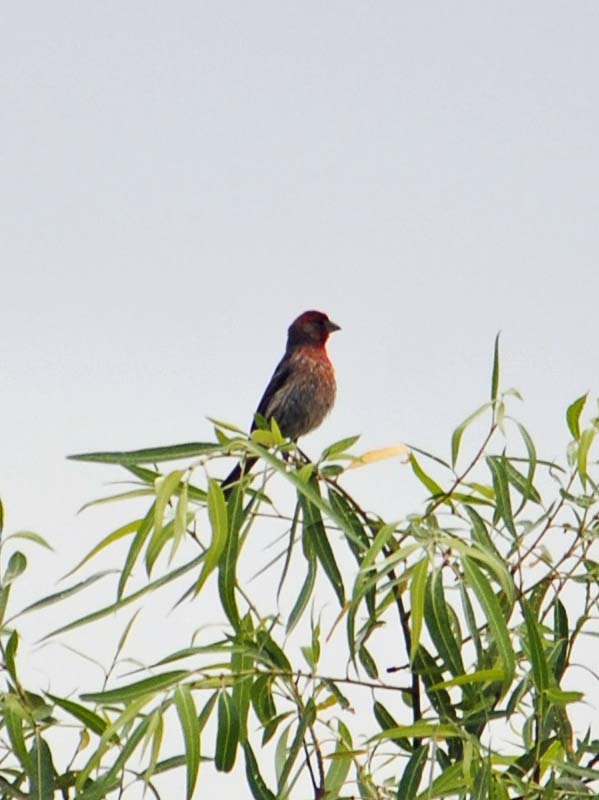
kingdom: Animalia
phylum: Chordata
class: Aves
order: Passeriformes
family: Fringillidae
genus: Haemorhous
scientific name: Haemorhous mexicanus
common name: House finch
